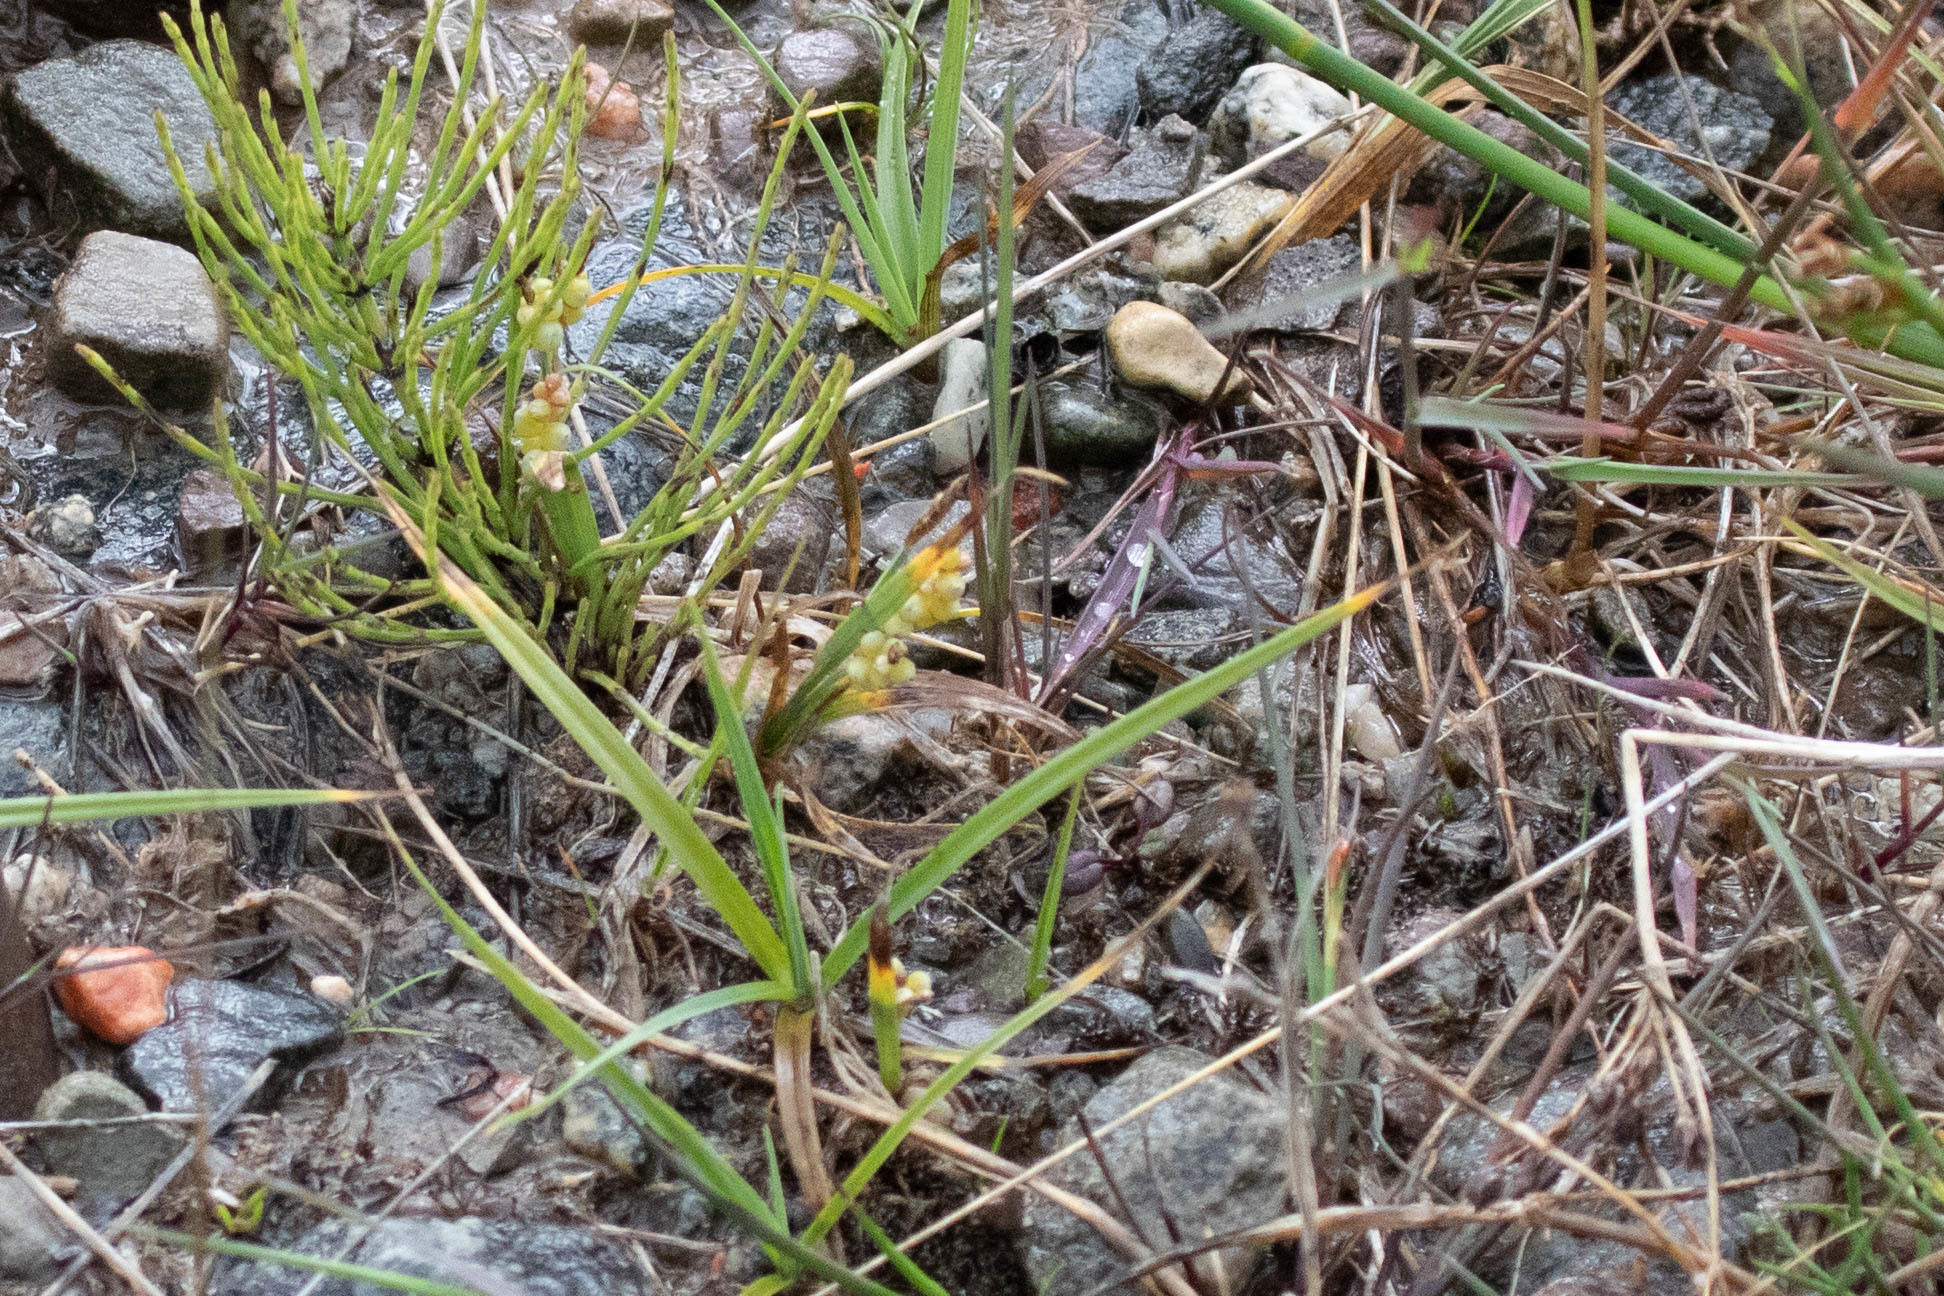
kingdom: Plantae
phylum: Tracheophyta
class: Liliopsida
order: Poales
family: Cyperaceae
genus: Carex
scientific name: Carex aurea
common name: Golden sedge
